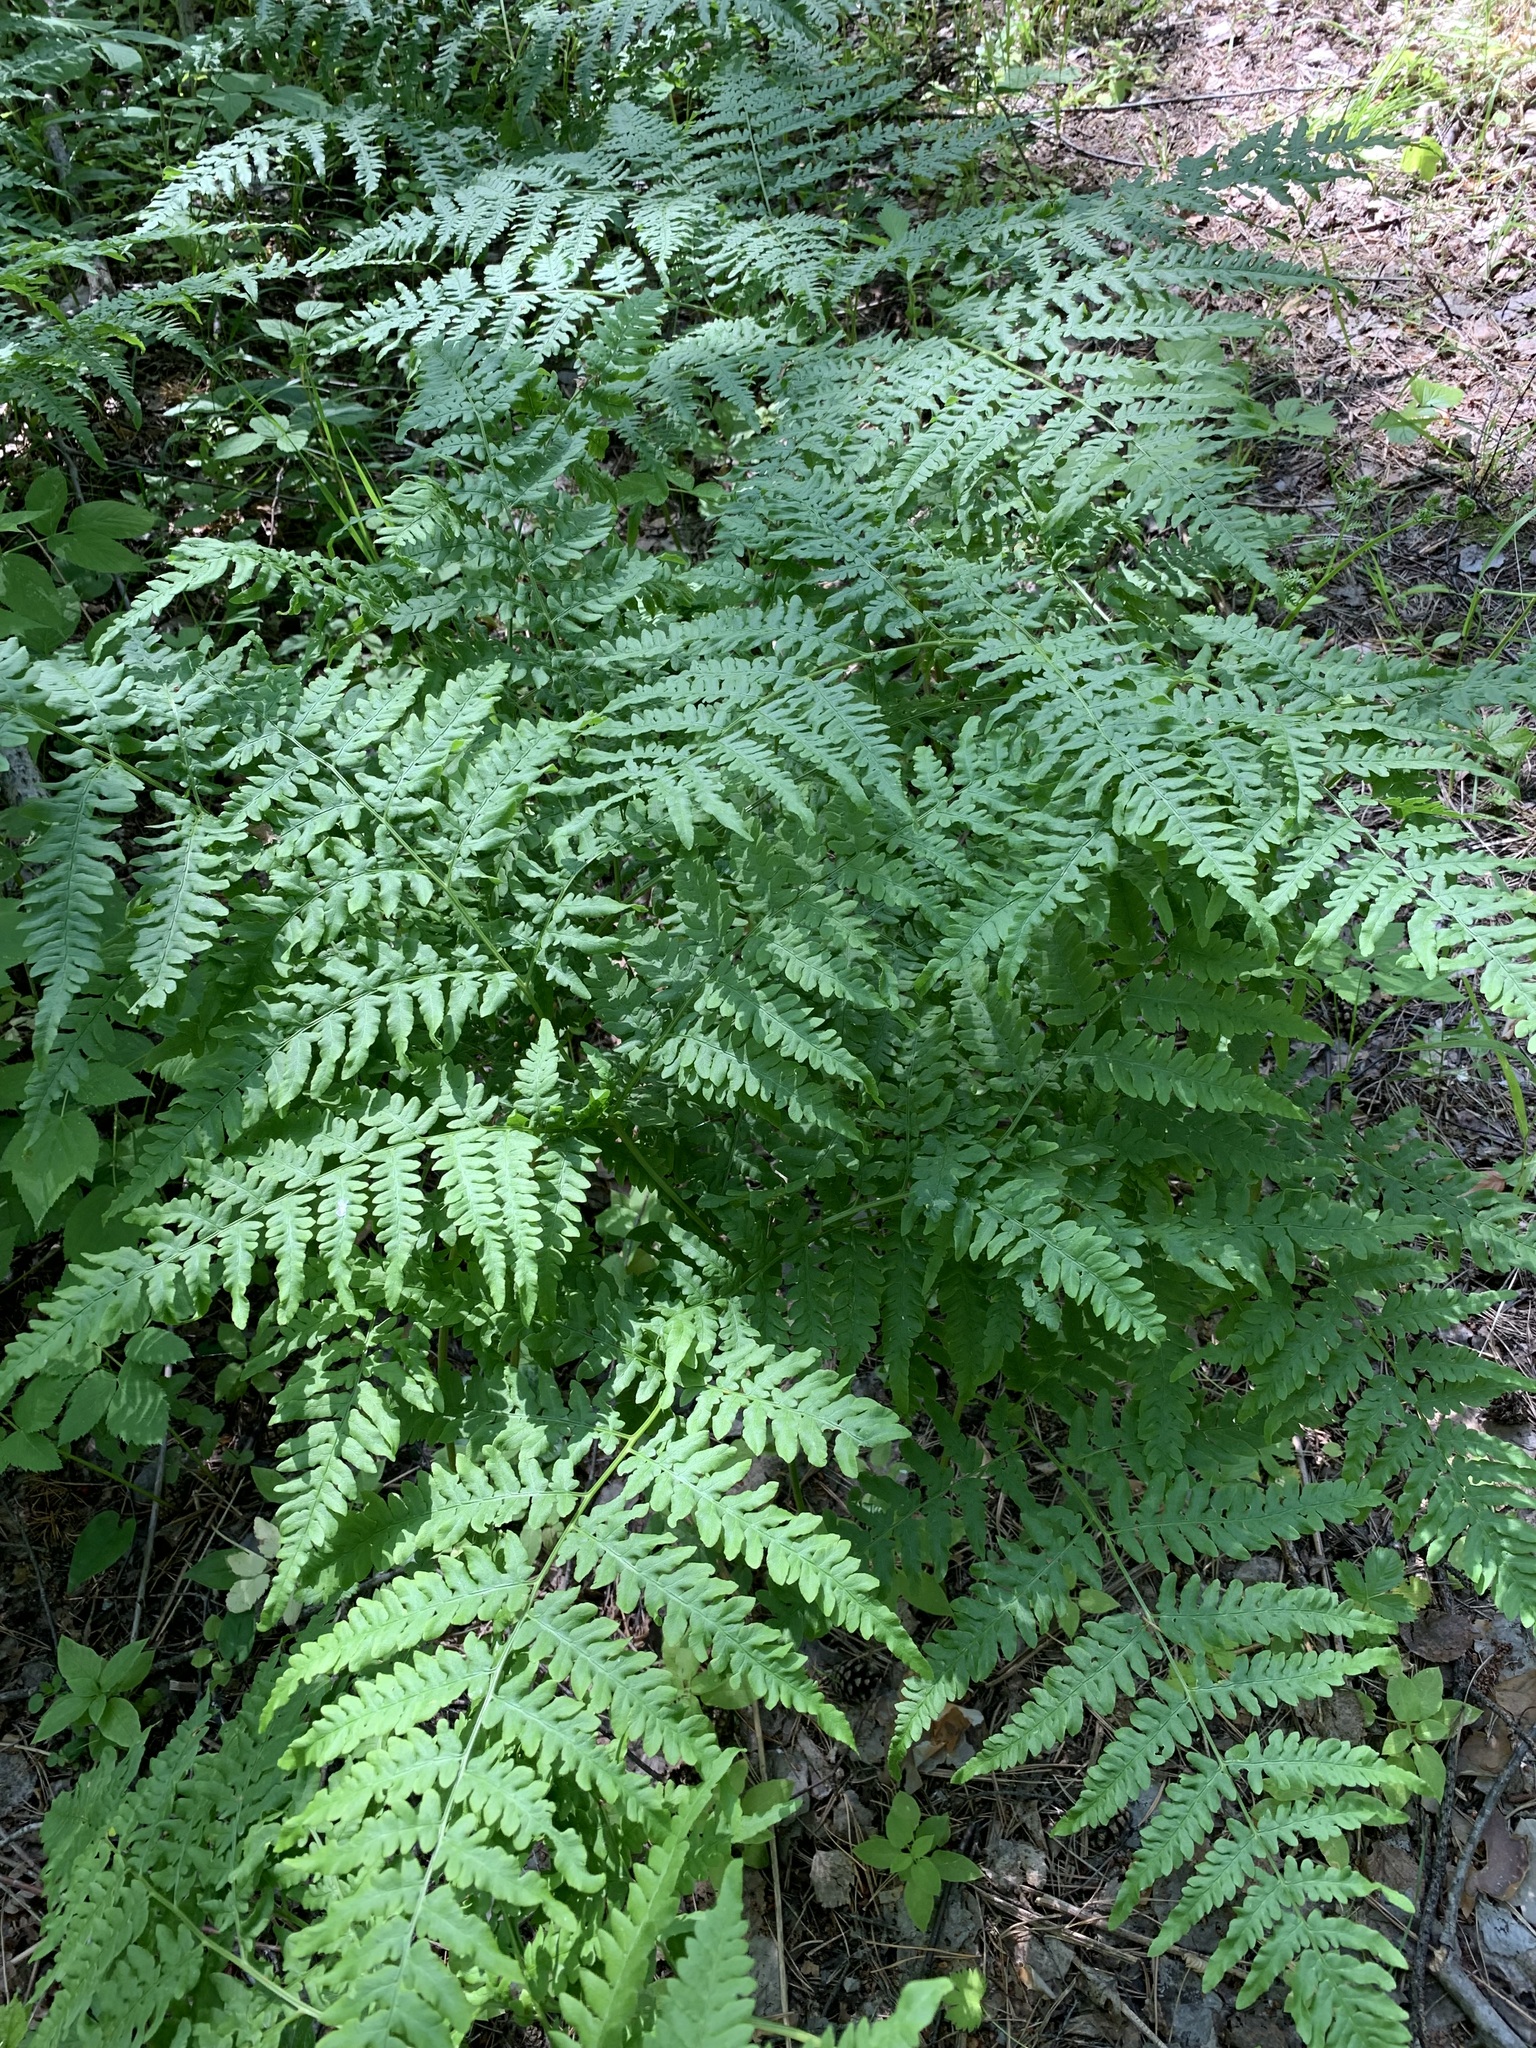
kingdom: Plantae
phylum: Tracheophyta
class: Polypodiopsida
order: Polypodiales
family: Dennstaedtiaceae
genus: Pteridium
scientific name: Pteridium aquilinum
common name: Bracken
